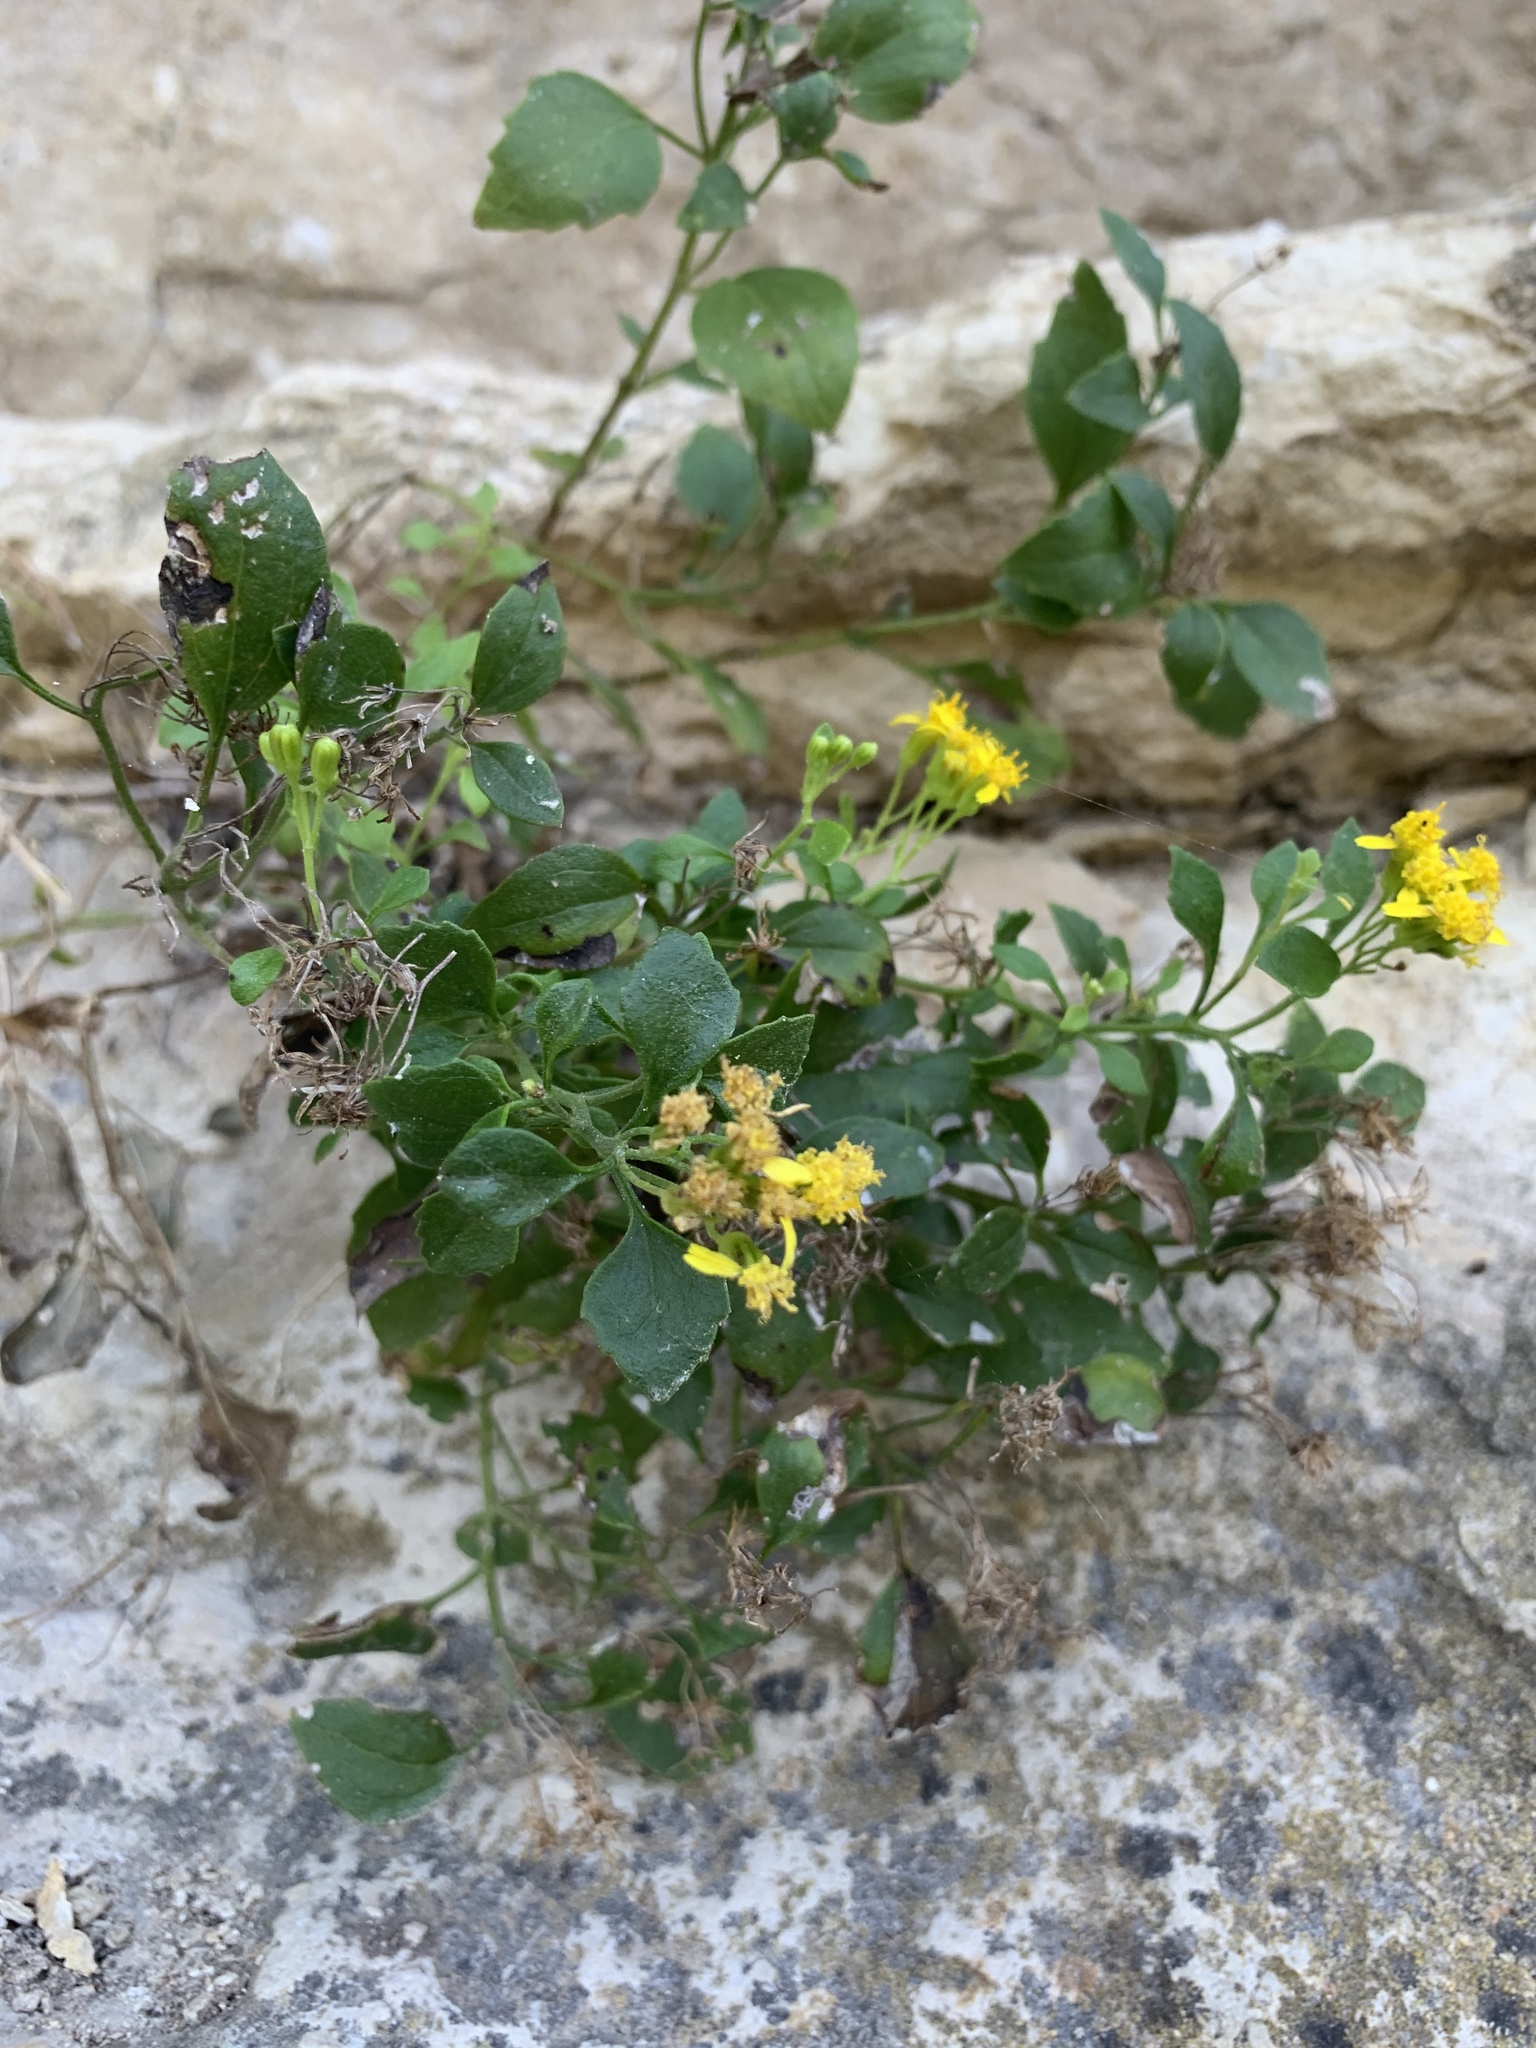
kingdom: Plantae
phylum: Tracheophyta
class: Magnoliopsida
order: Asterales
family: Asteraceae
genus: Laphamia
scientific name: Laphamia lindheimeri
